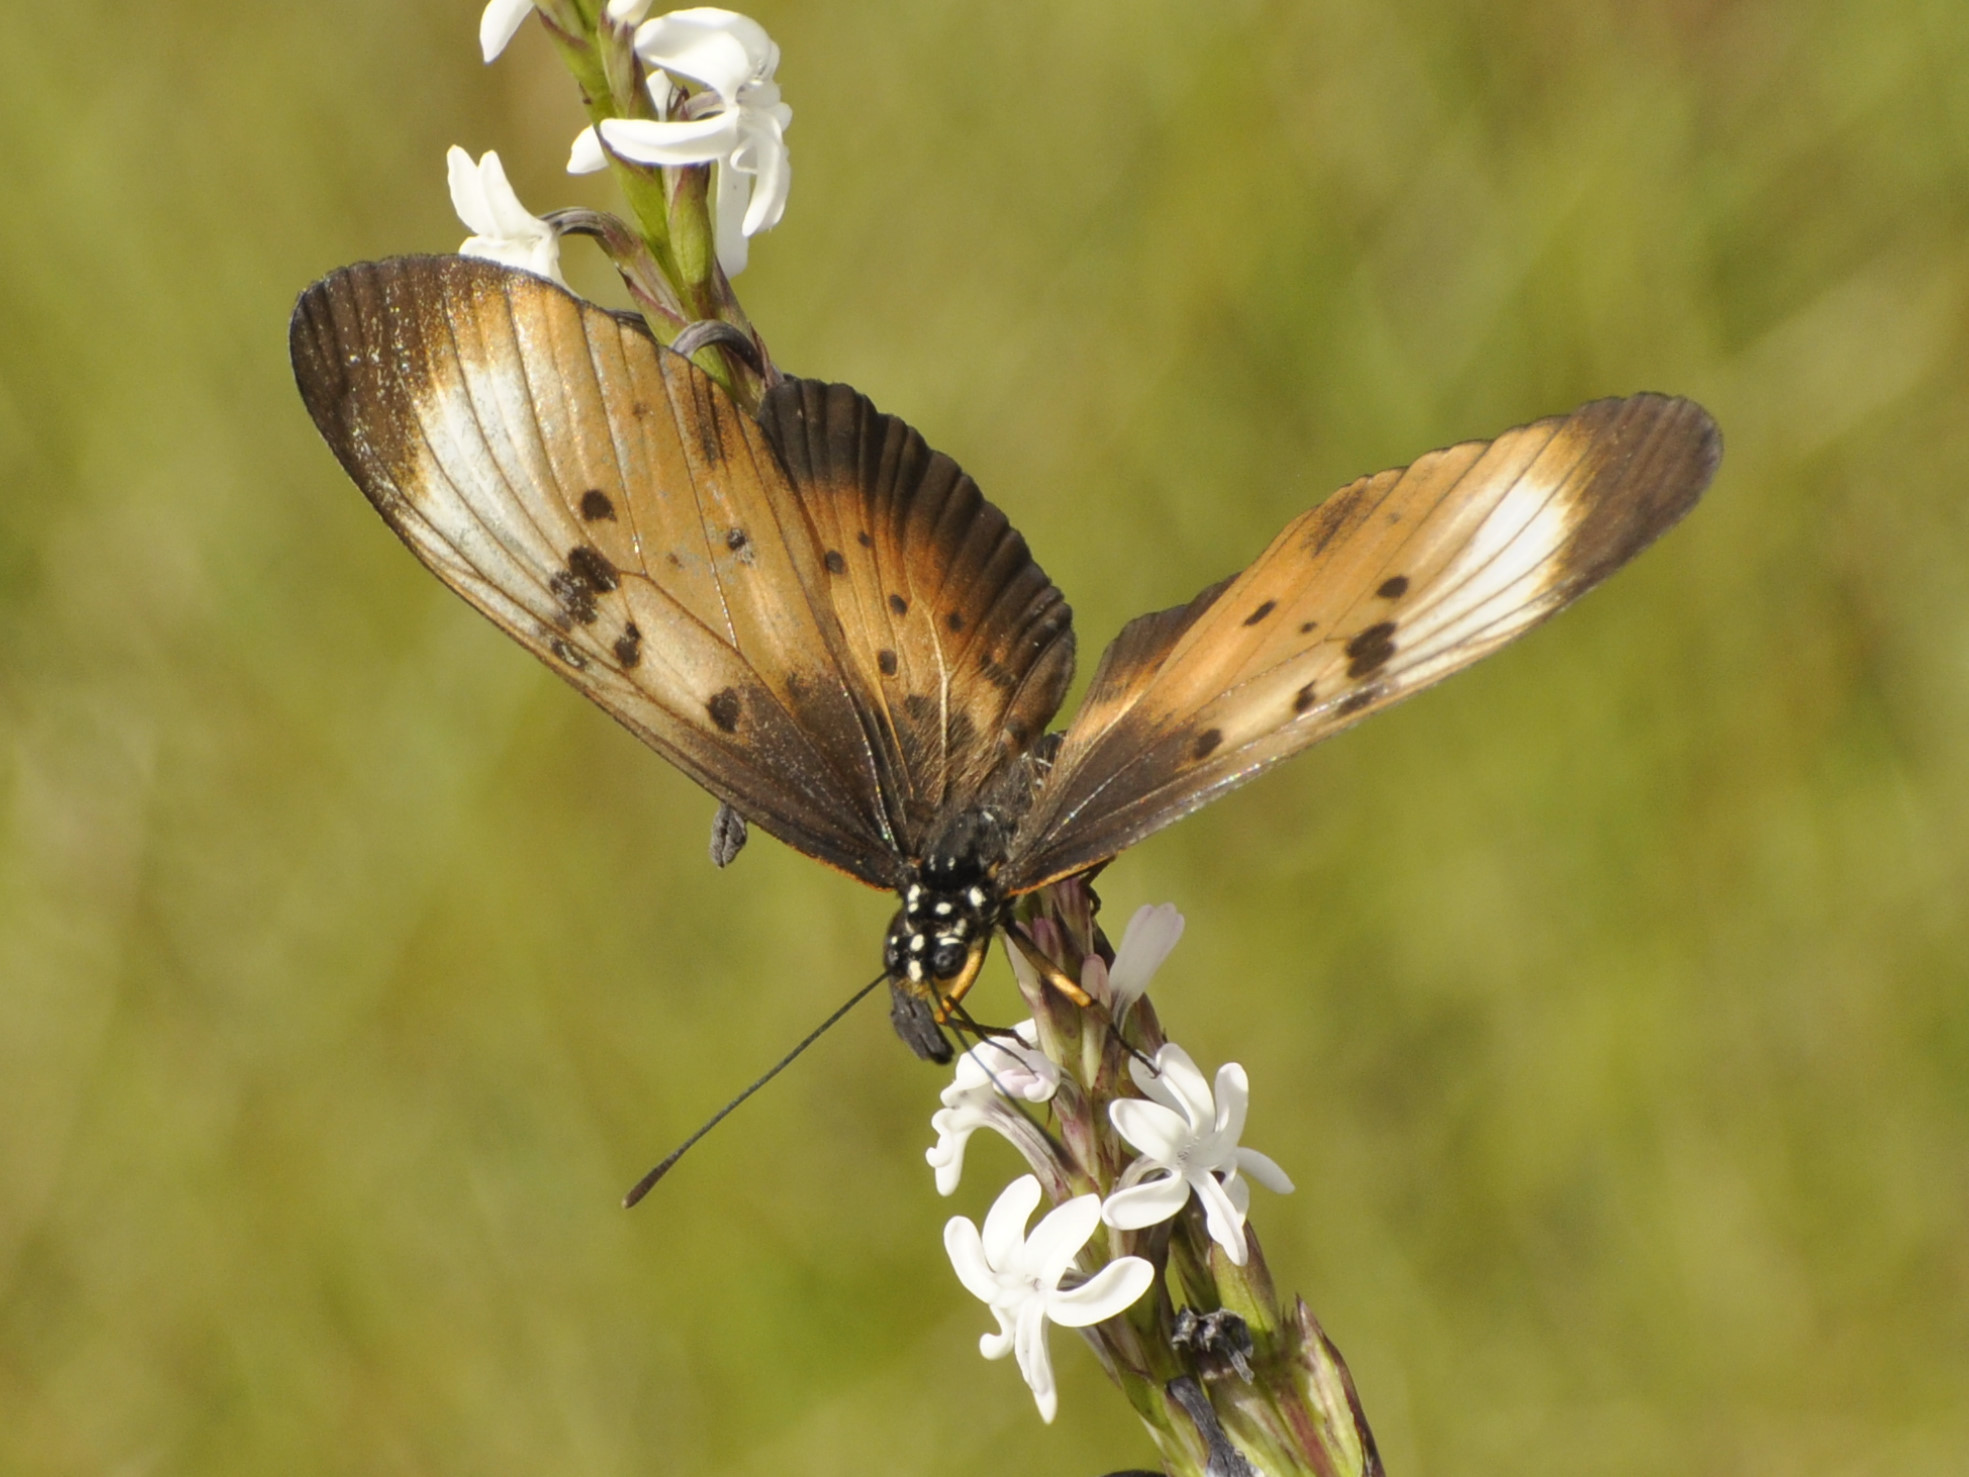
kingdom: Animalia
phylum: Arthropoda
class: Insecta
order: Lepidoptera
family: Nymphalidae
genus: Stephenia
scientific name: Stephenia
